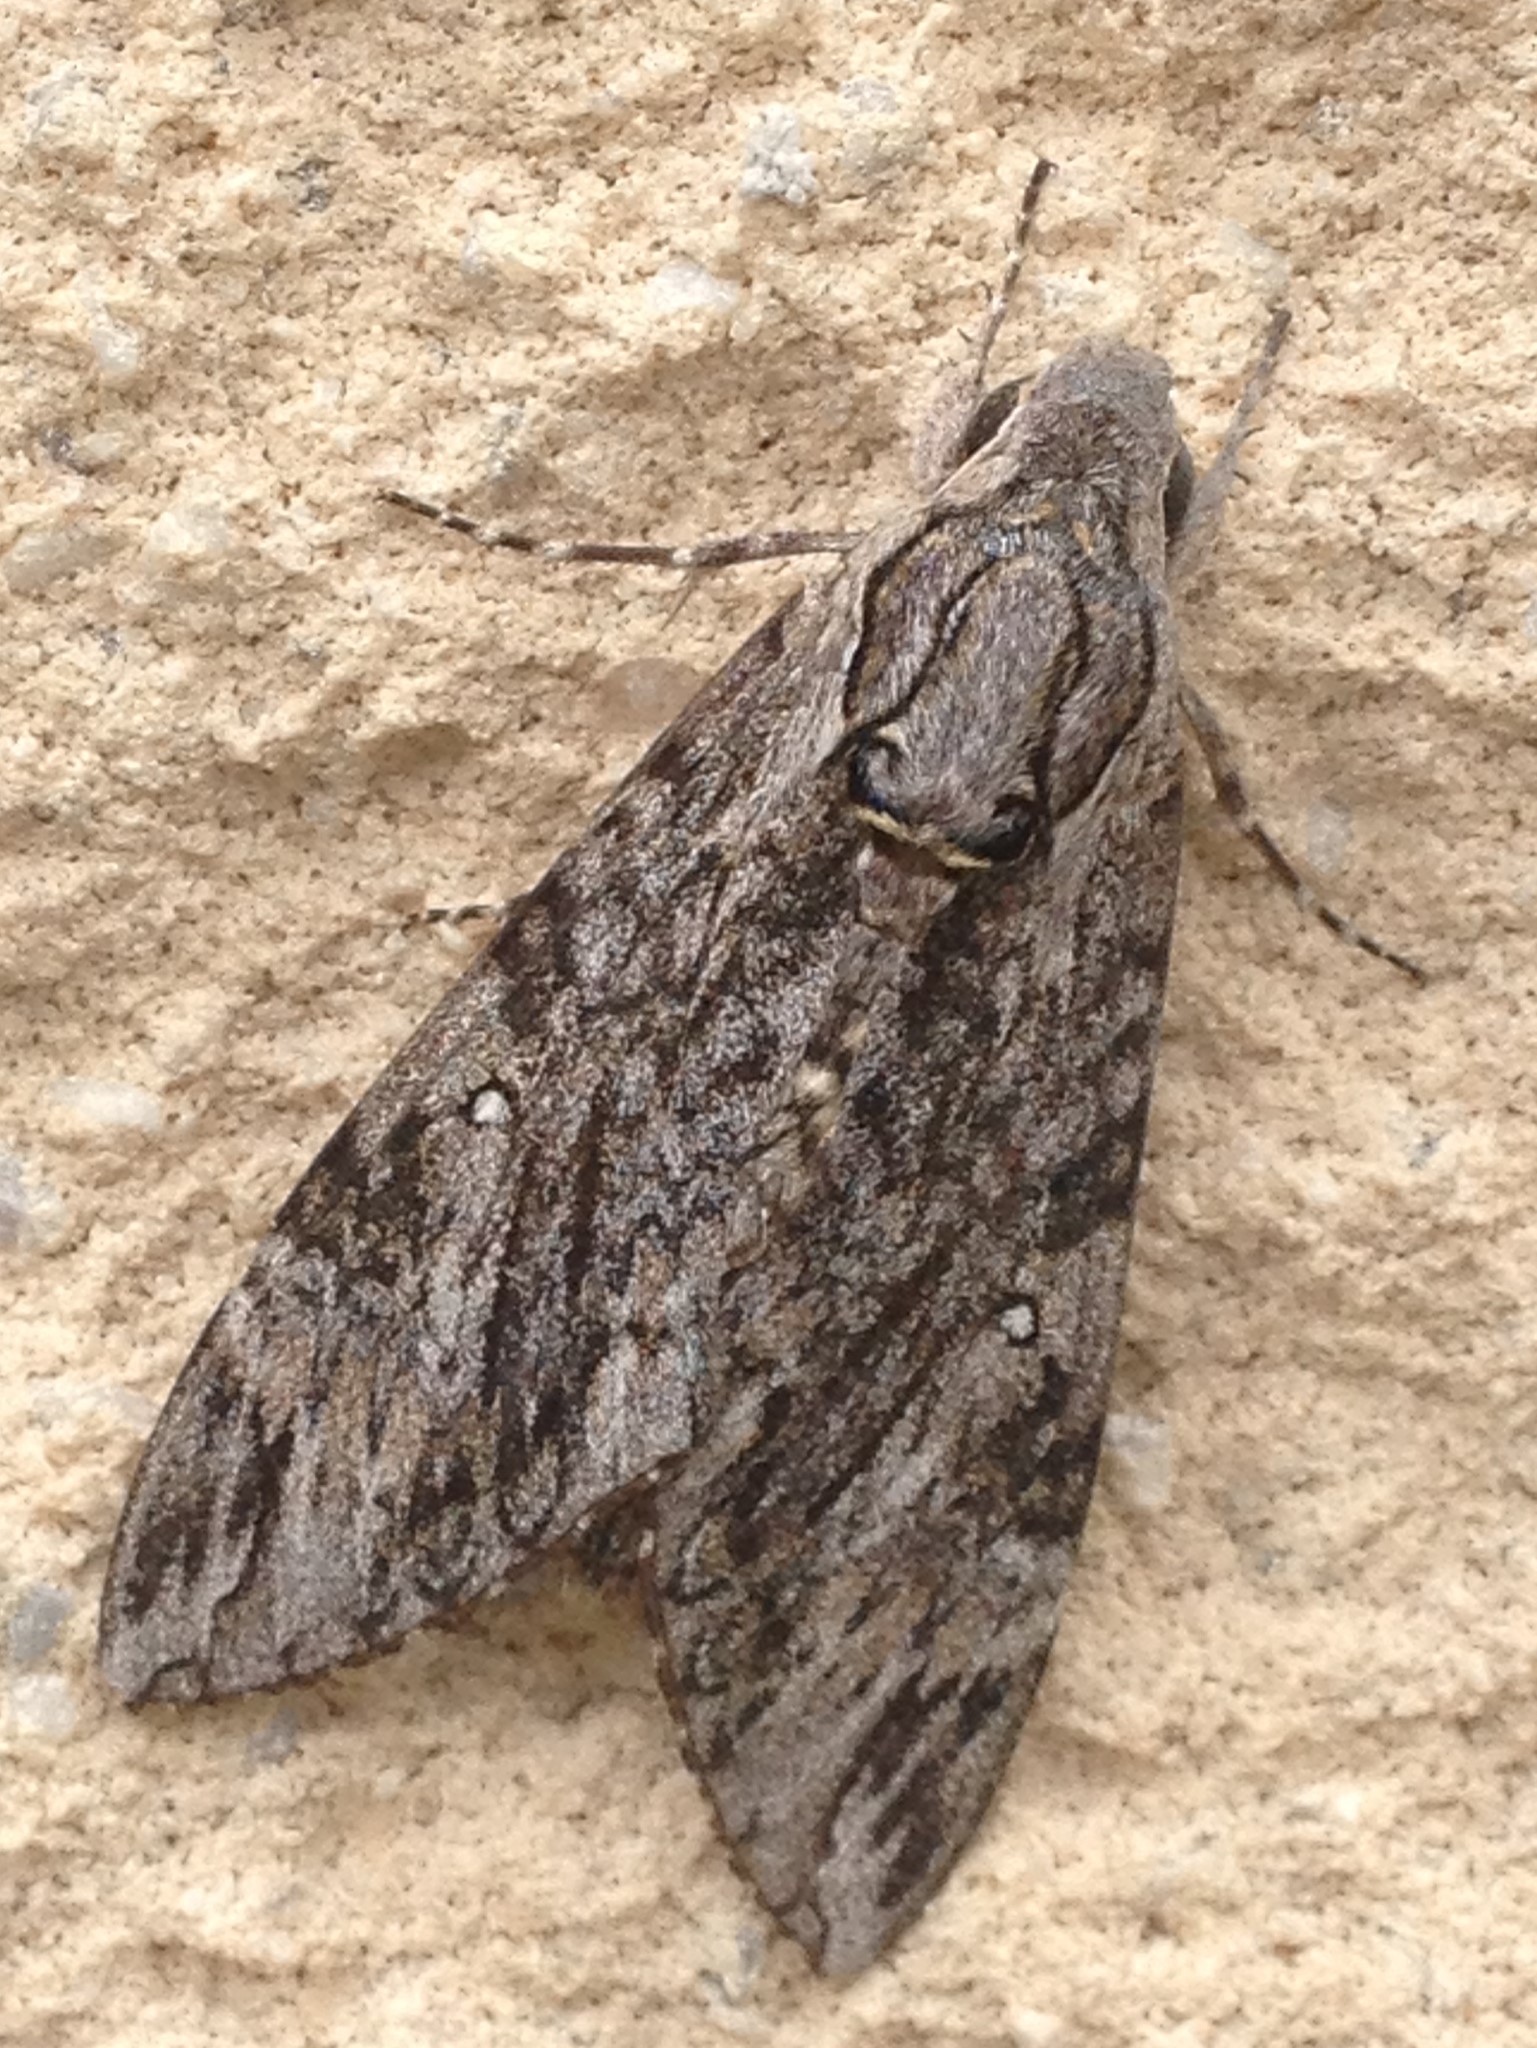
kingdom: Animalia
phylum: Arthropoda
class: Insecta
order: Lepidoptera
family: Sphingidae
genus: Agrius
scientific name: Agrius godarti
